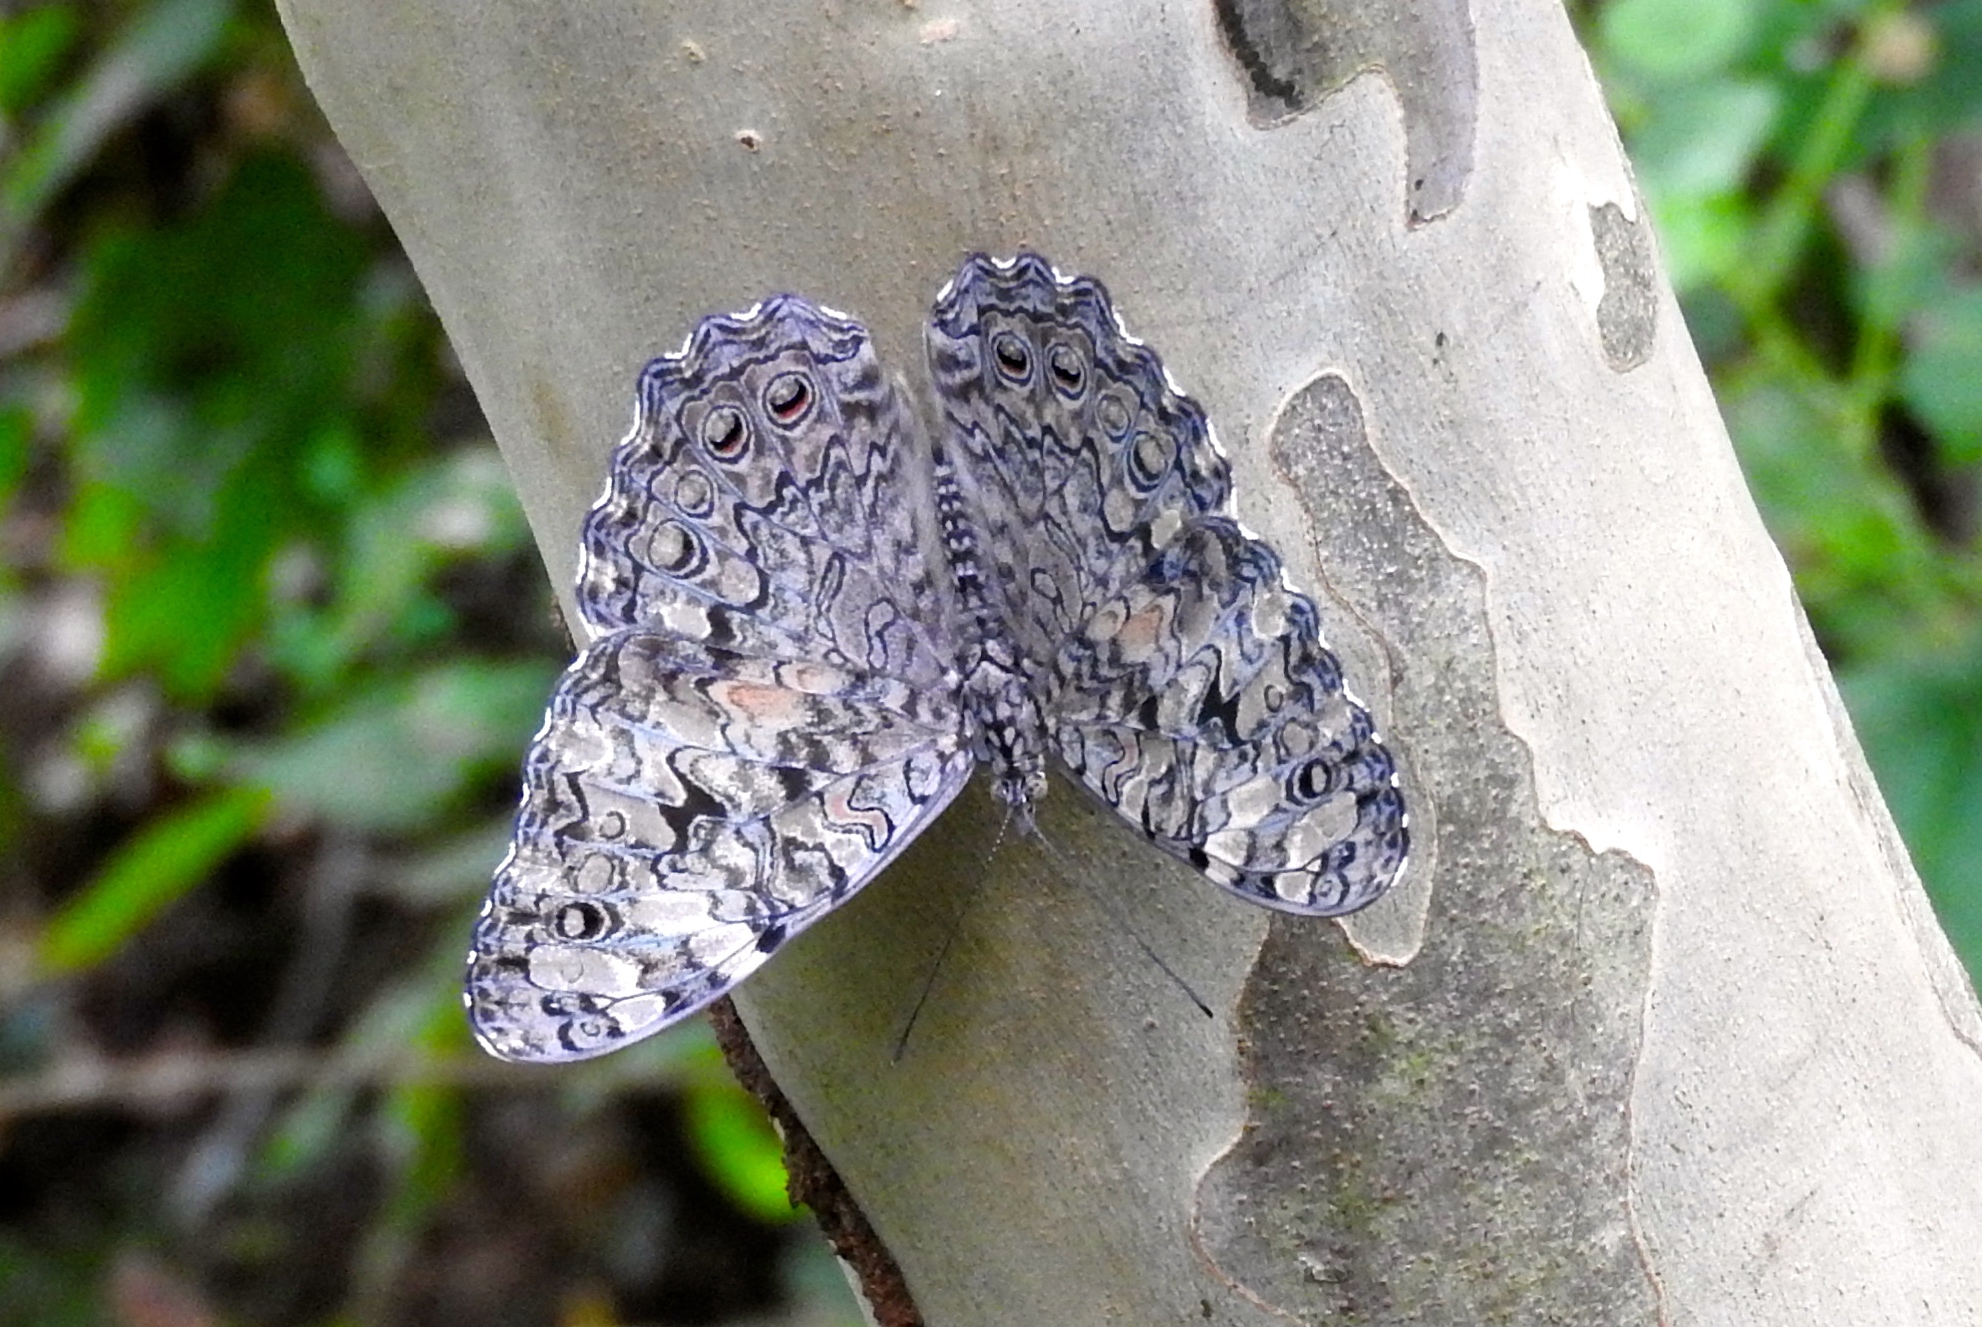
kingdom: Animalia
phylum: Arthropoda
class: Insecta
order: Lepidoptera
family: Nymphalidae
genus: Hamadryas
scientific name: Hamadryas
